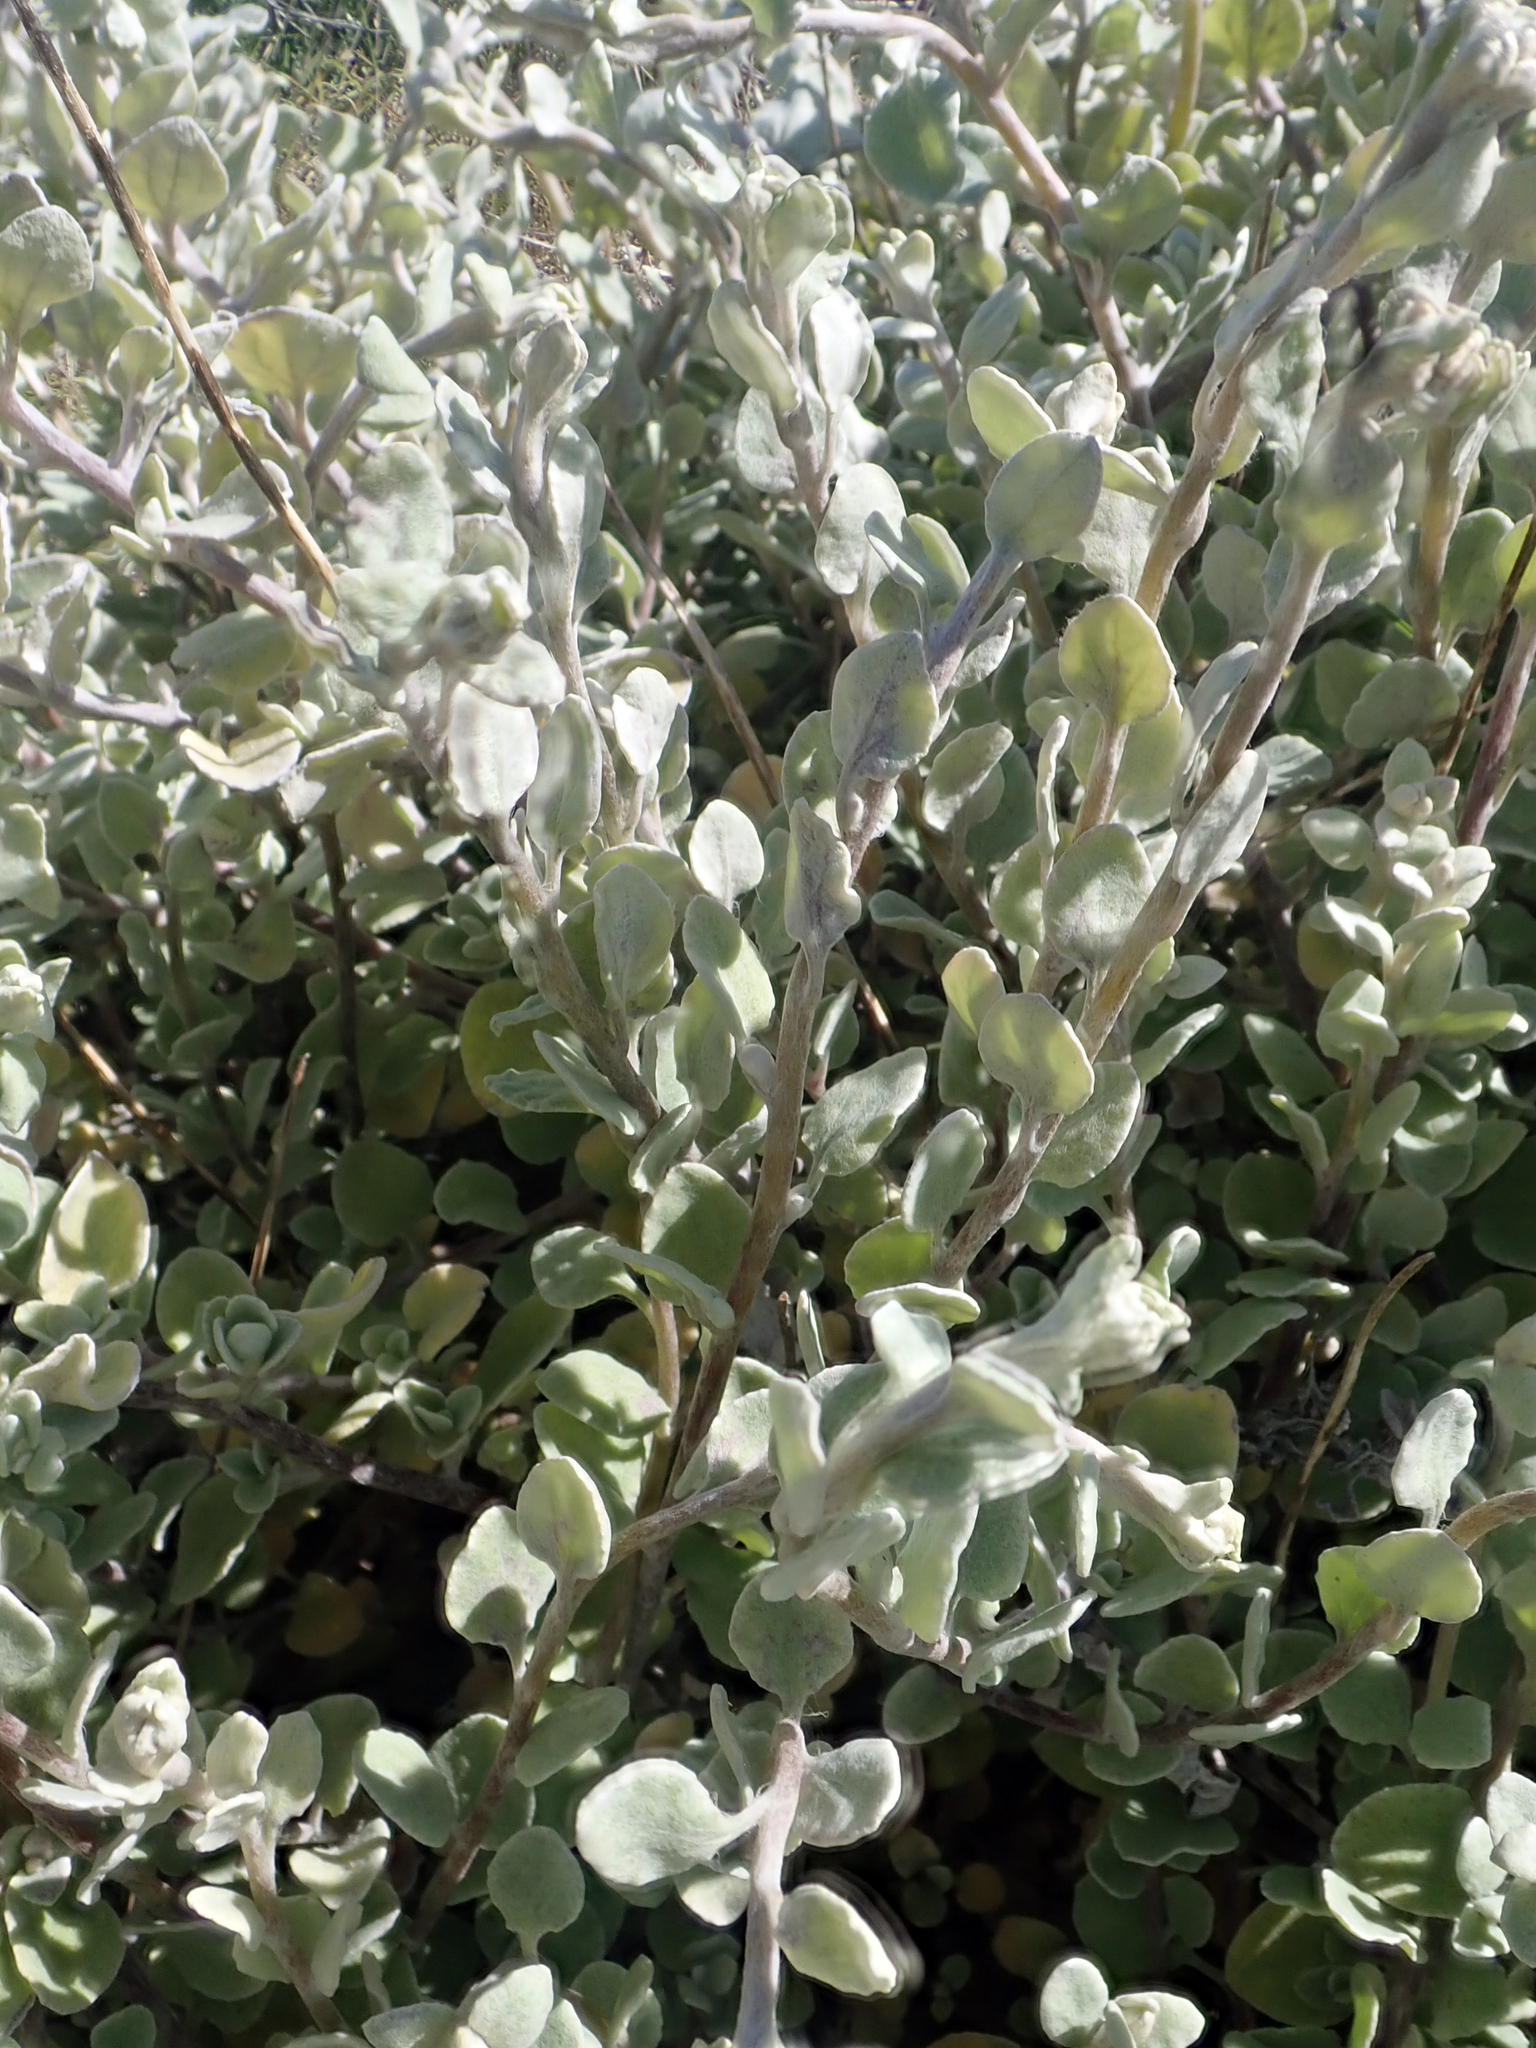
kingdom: Plantae
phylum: Tracheophyta
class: Magnoliopsida
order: Asterales
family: Asteraceae
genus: Helichrysum
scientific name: Helichrysum petiolare
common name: Licorice-plant
